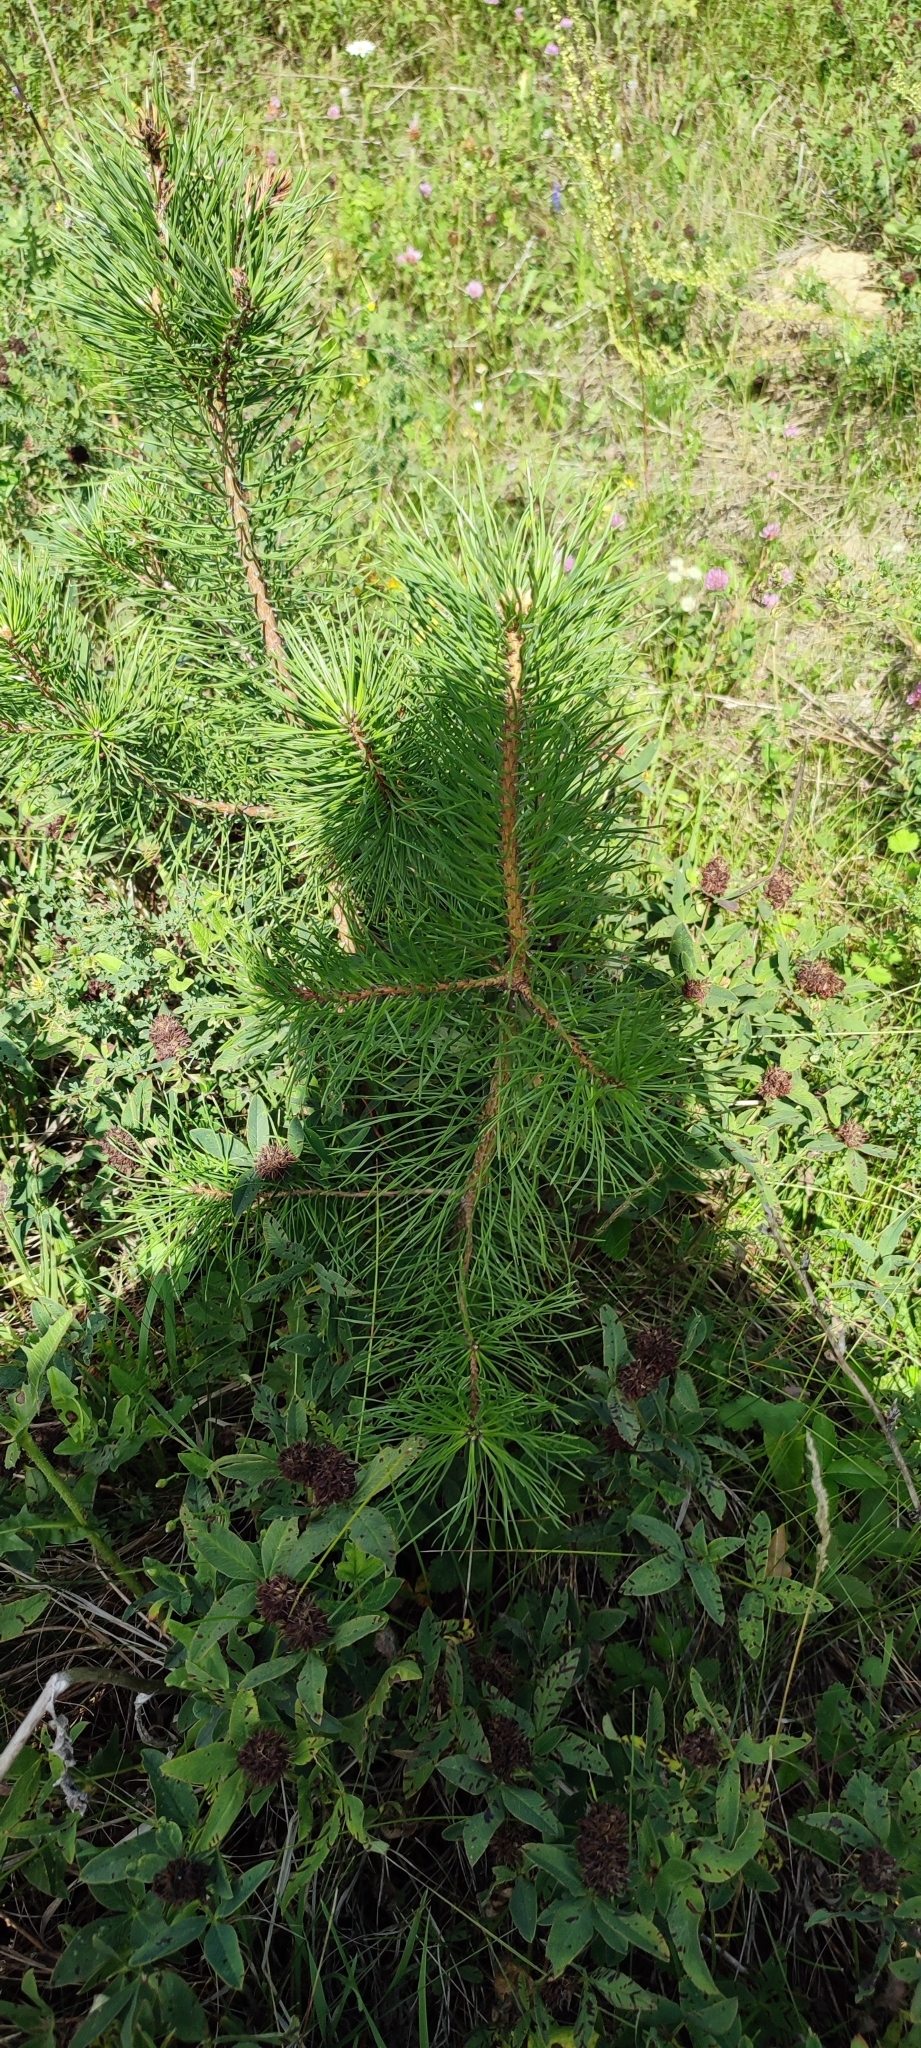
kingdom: Plantae
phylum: Tracheophyta
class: Pinopsida
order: Pinales
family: Pinaceae
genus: Pinus
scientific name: Pinus sylvestris
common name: Scots pine
